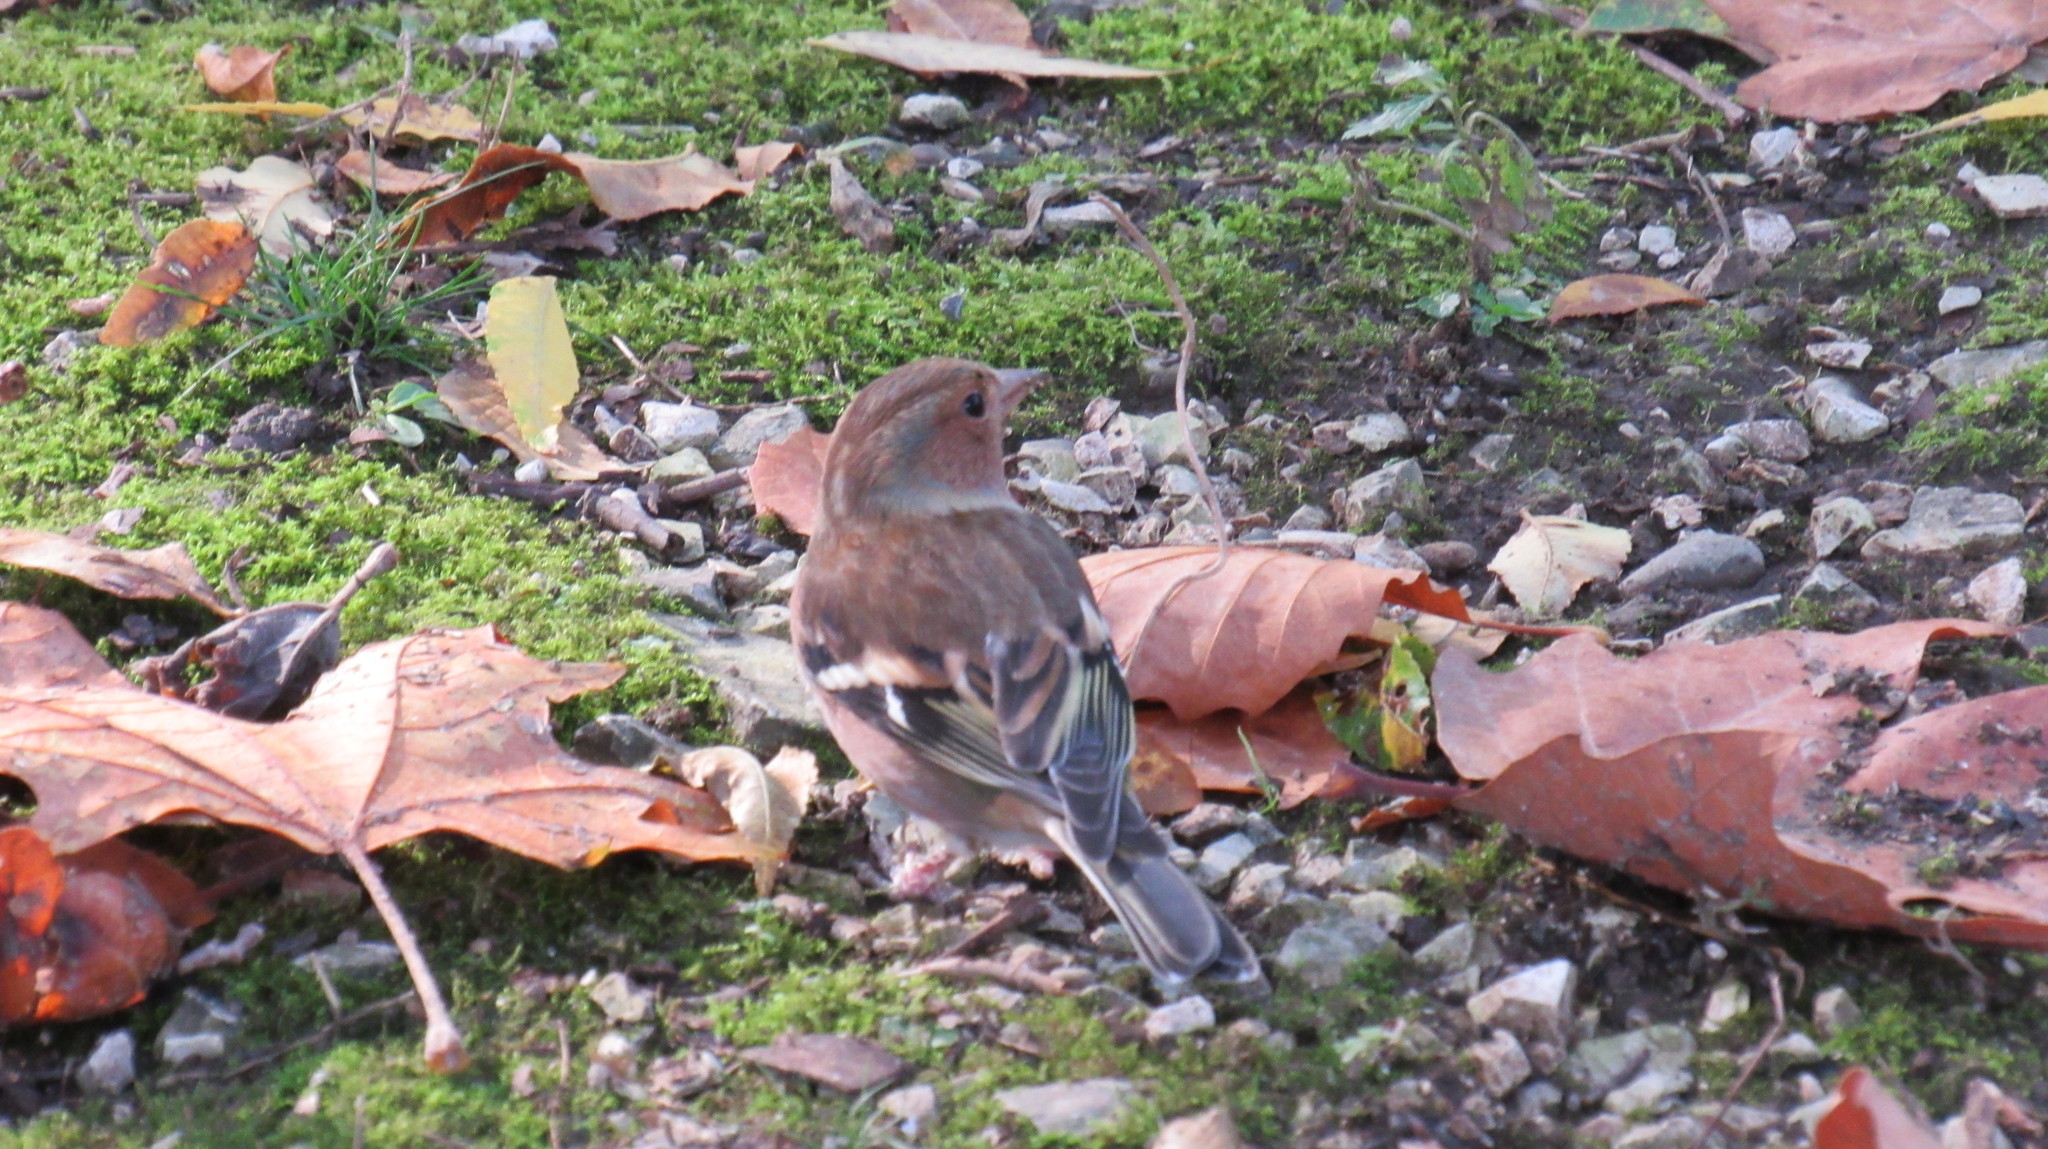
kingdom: Animalia
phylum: Chordata
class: Aves
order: Passeriformes
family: Fringillidae
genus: Fringilla
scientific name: Fringilla coelebs
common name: Common chaffinch
